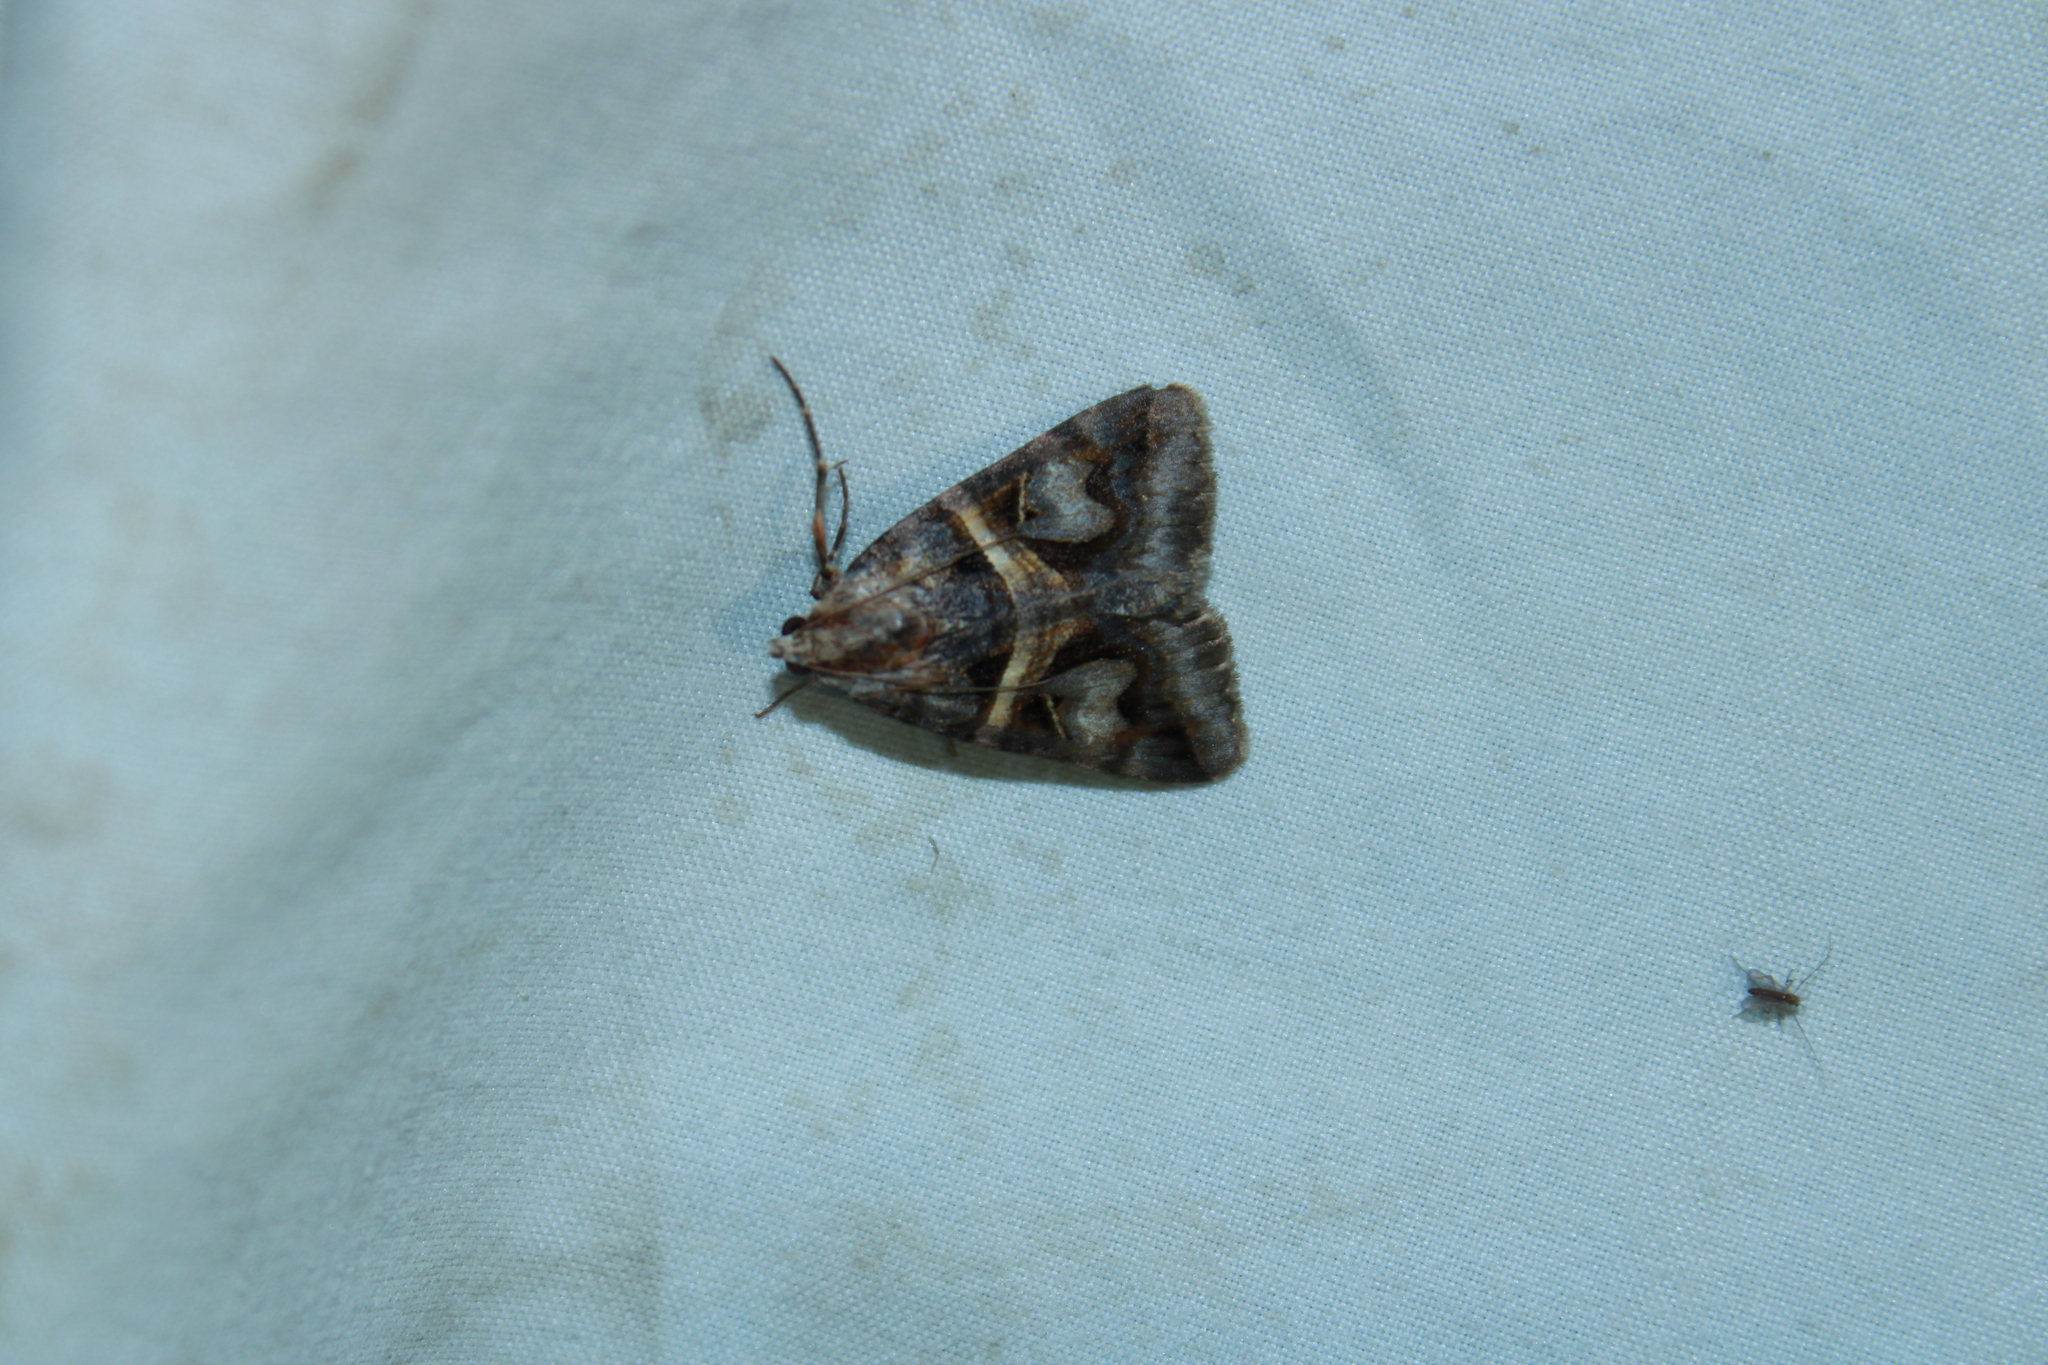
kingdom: Animalia
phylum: Arthropoda
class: Insecta
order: Lepidoptera
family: Erebidae
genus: Drasteria
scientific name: Drasteria grandirena
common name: Figure-seven moth
